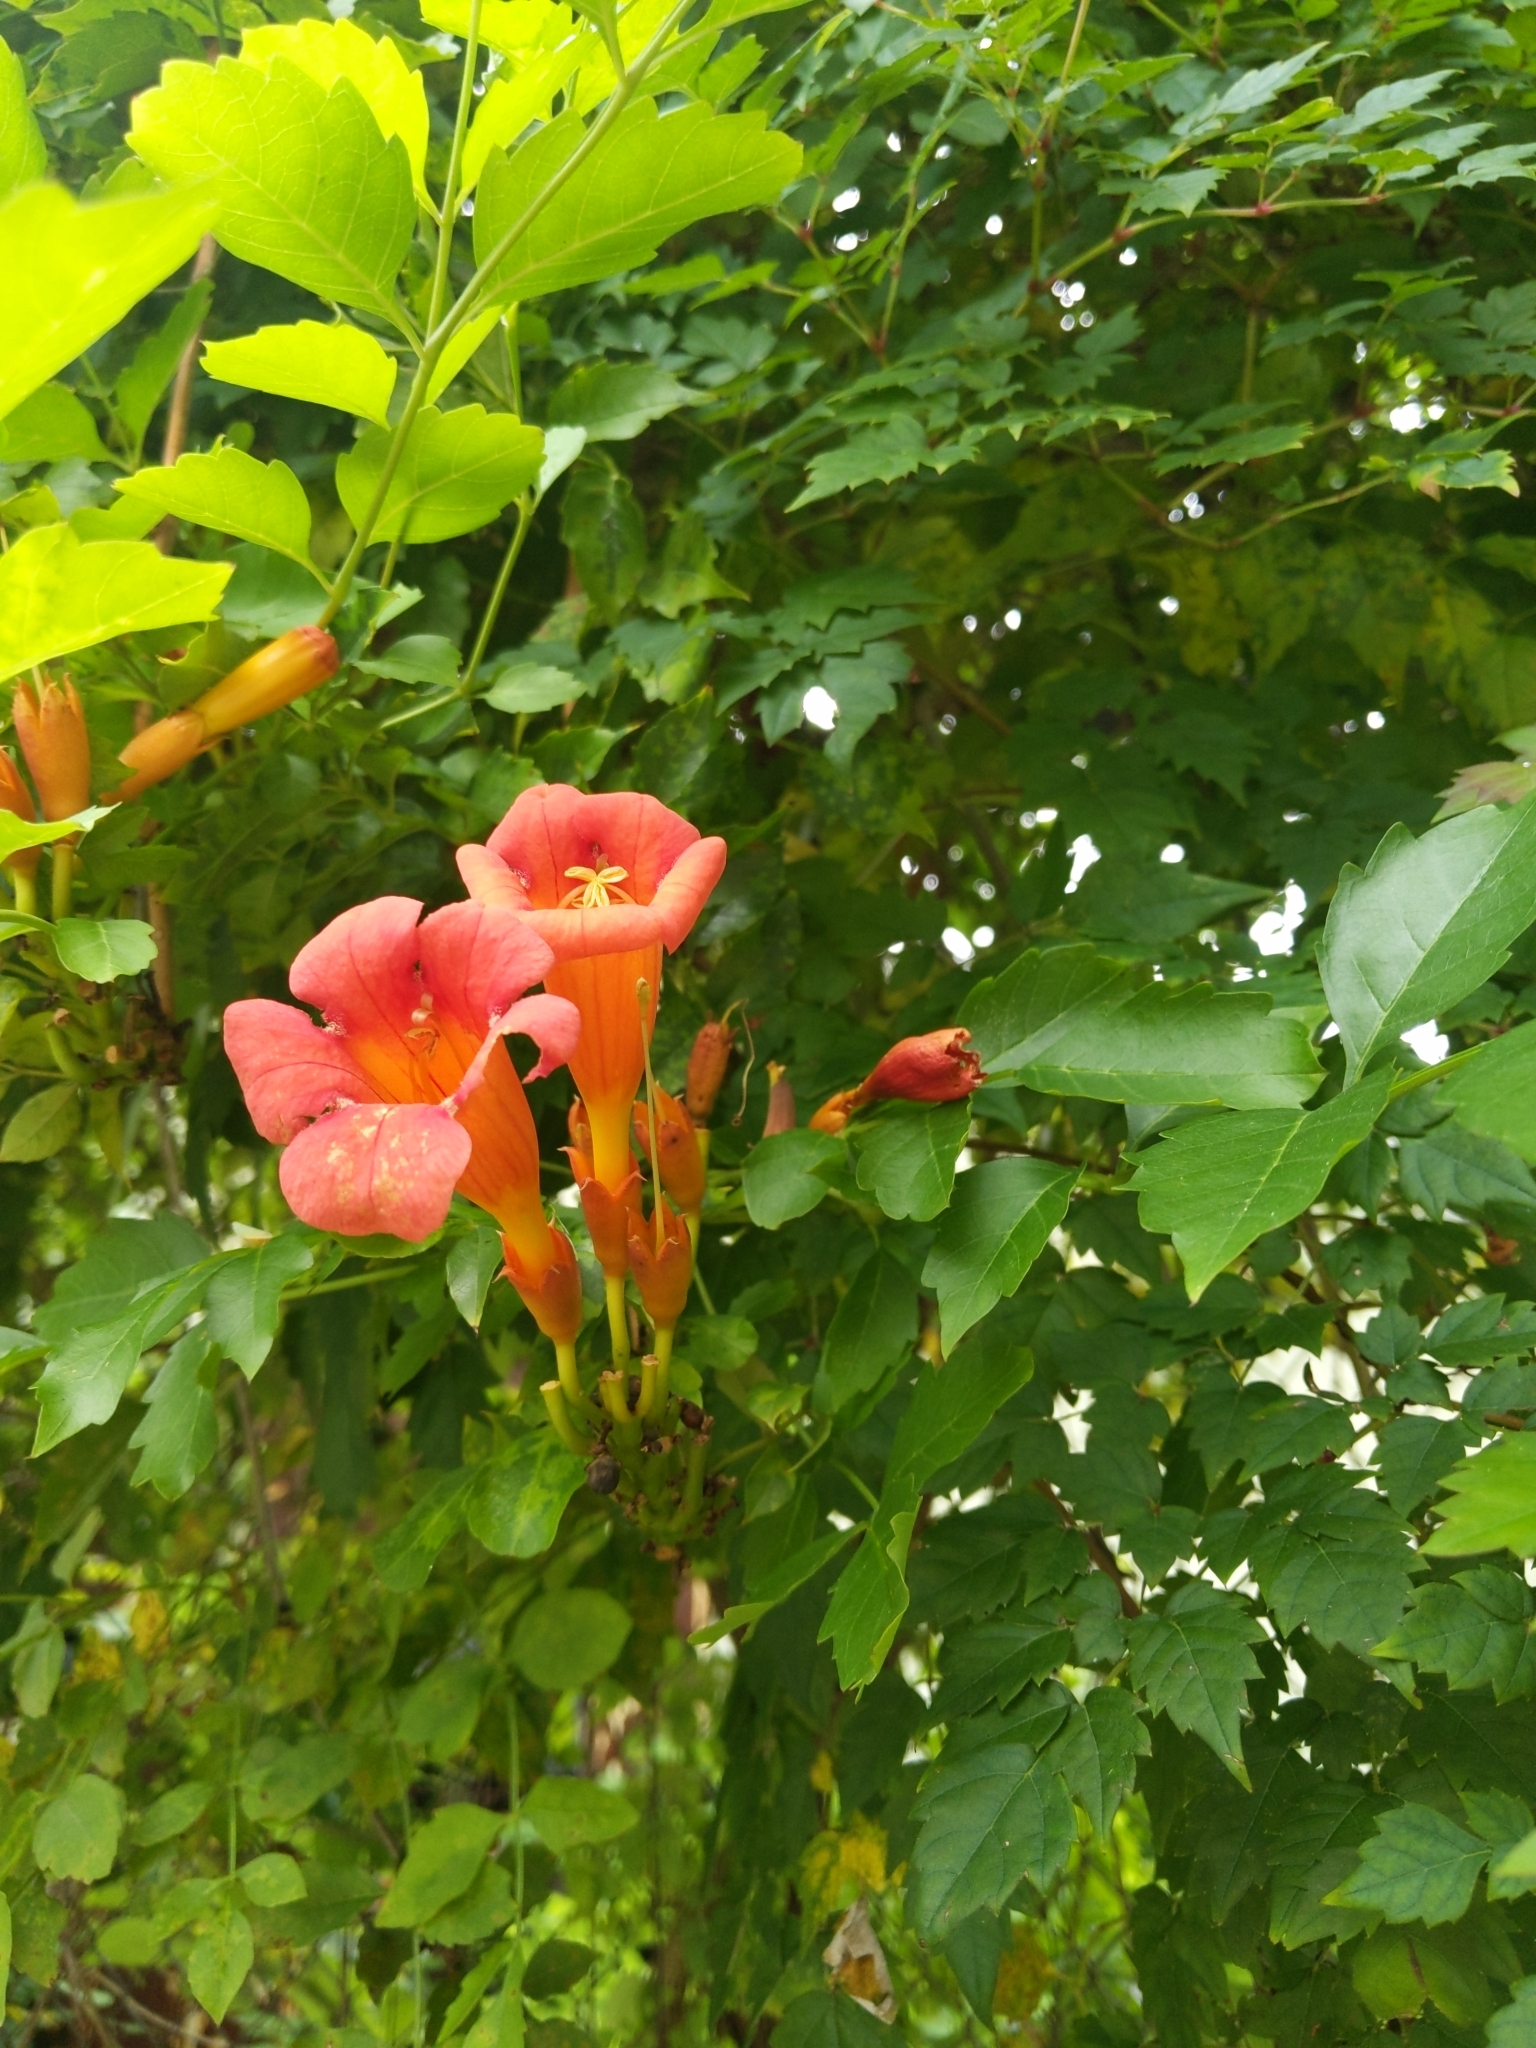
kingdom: Plantae
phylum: Tracheophyta
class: Magnoliopsida
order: Lamiales
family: Bignoniaceae
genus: Campsis
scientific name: Campsis radicans
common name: Trumpet-creeper
